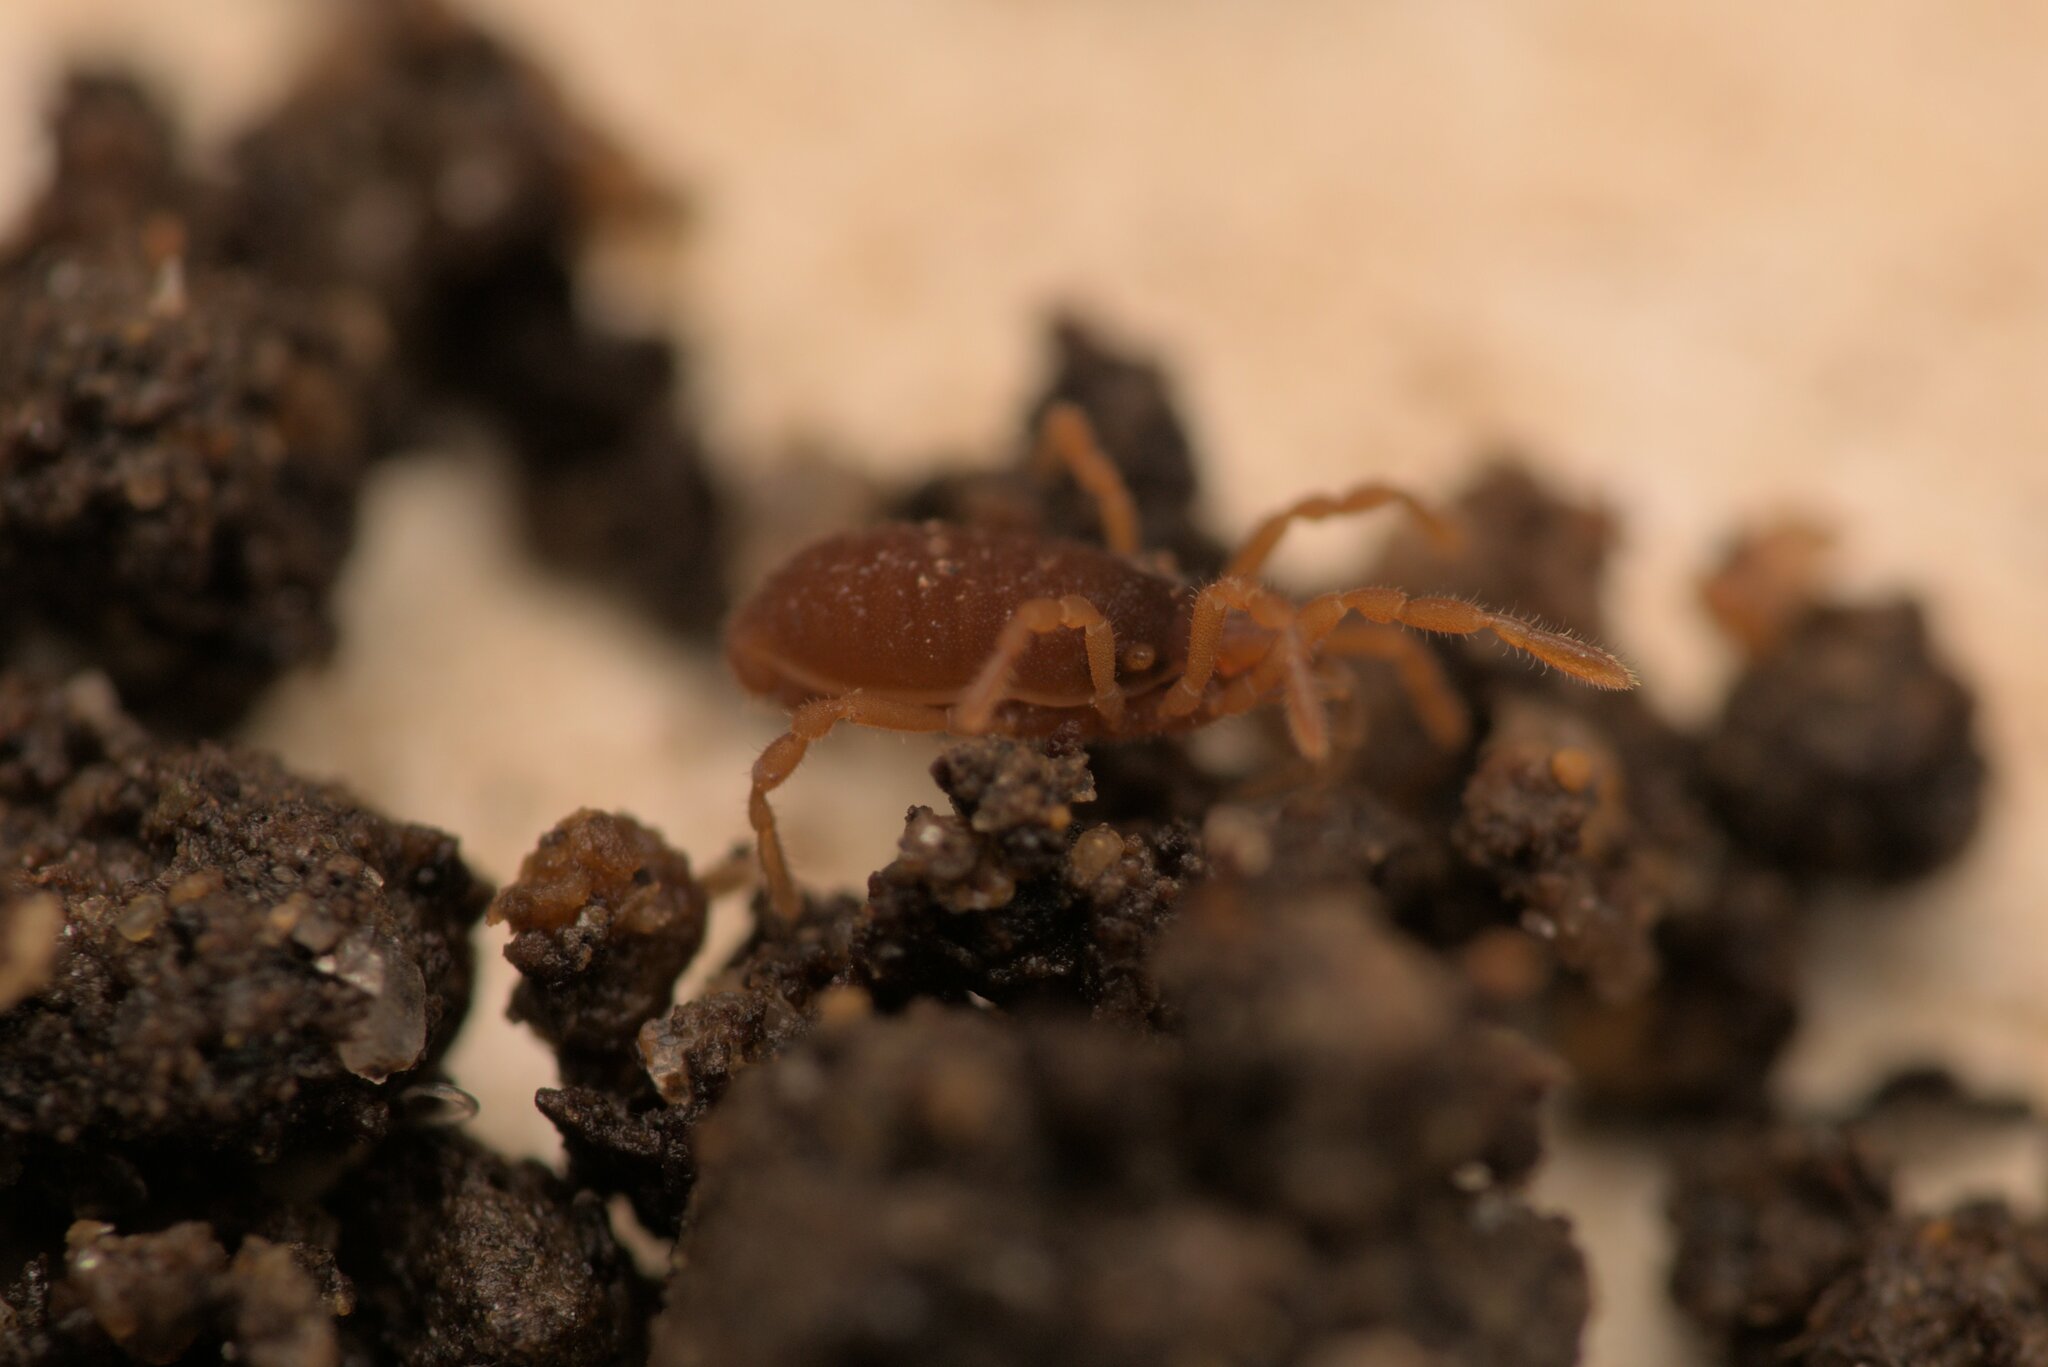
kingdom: Animalia
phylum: Arthropoda
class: Arachnida
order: Opiliones
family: Sironidae
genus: Siro
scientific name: Siro rubens
